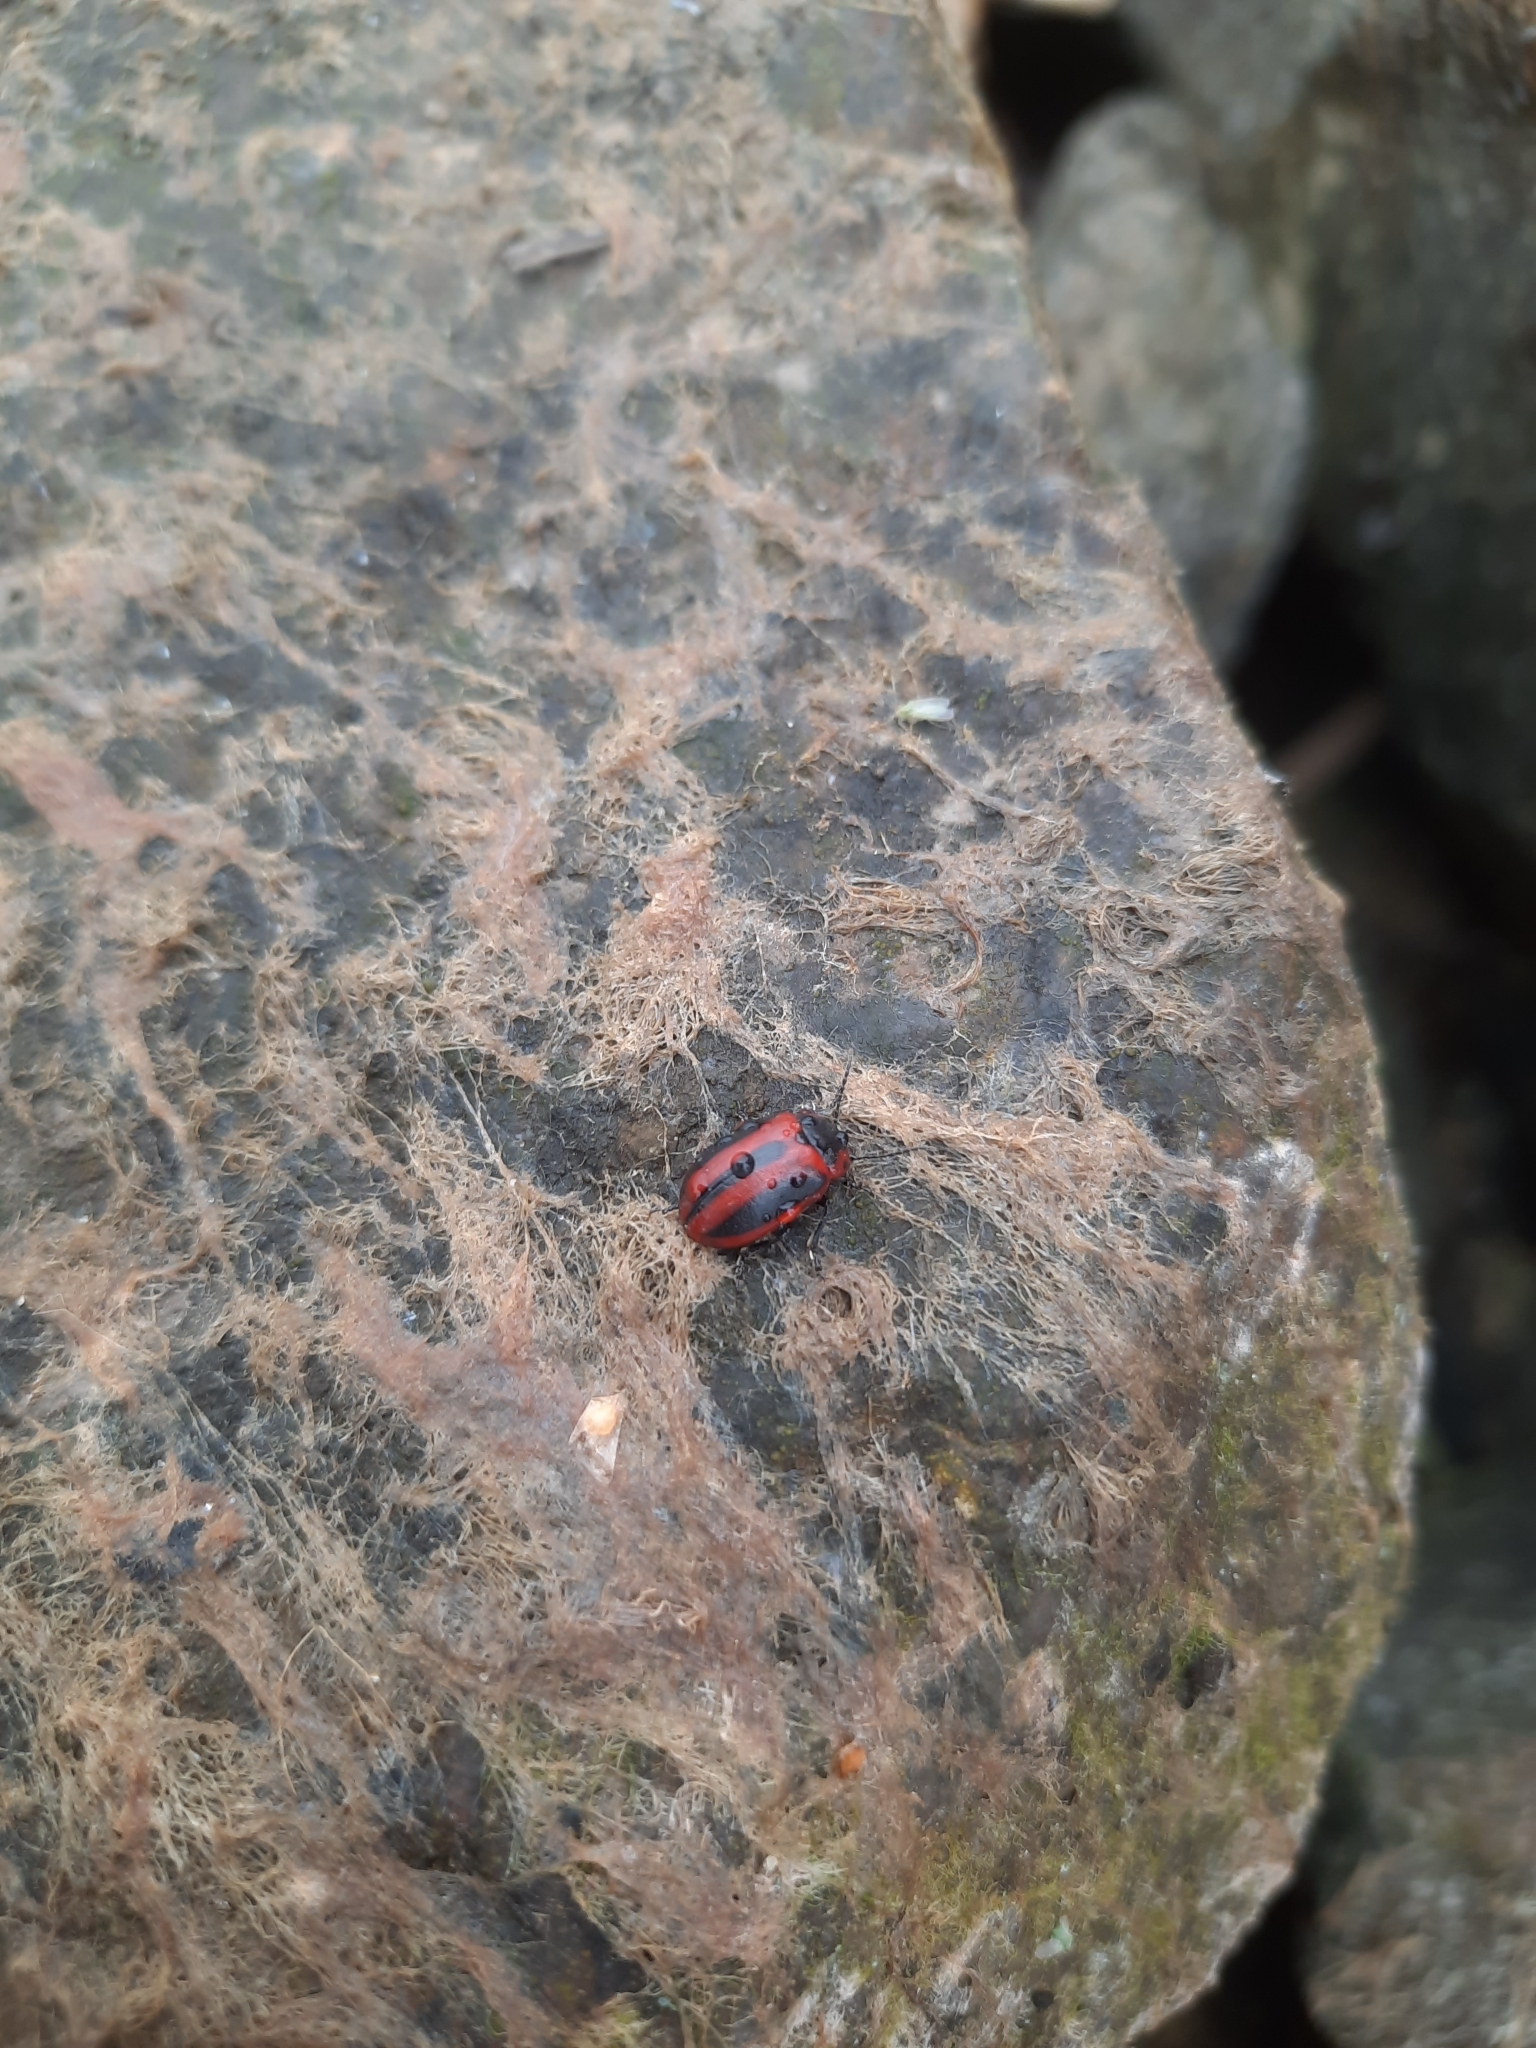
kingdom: Animalia
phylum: Arthropoda
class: Insecta
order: Coleoptera
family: Chrysomelidae
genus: Entomoscelis
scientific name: Entomoscelis adonidis
